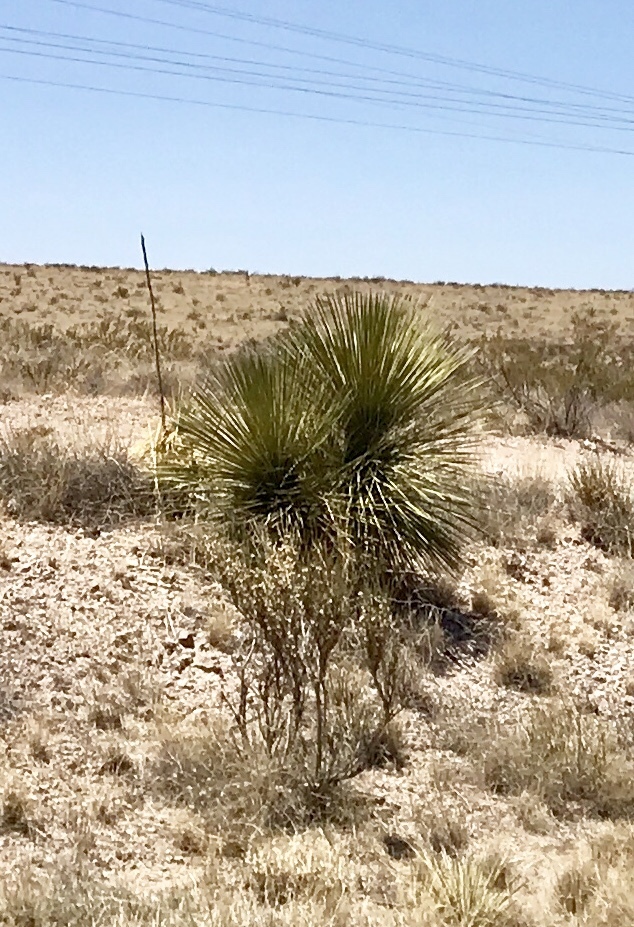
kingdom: Plantae
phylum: Tracheophyta
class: Liliopsida
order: Asparagales
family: Asparagaceae
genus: Yucca
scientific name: Yucca elata
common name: Palmella
